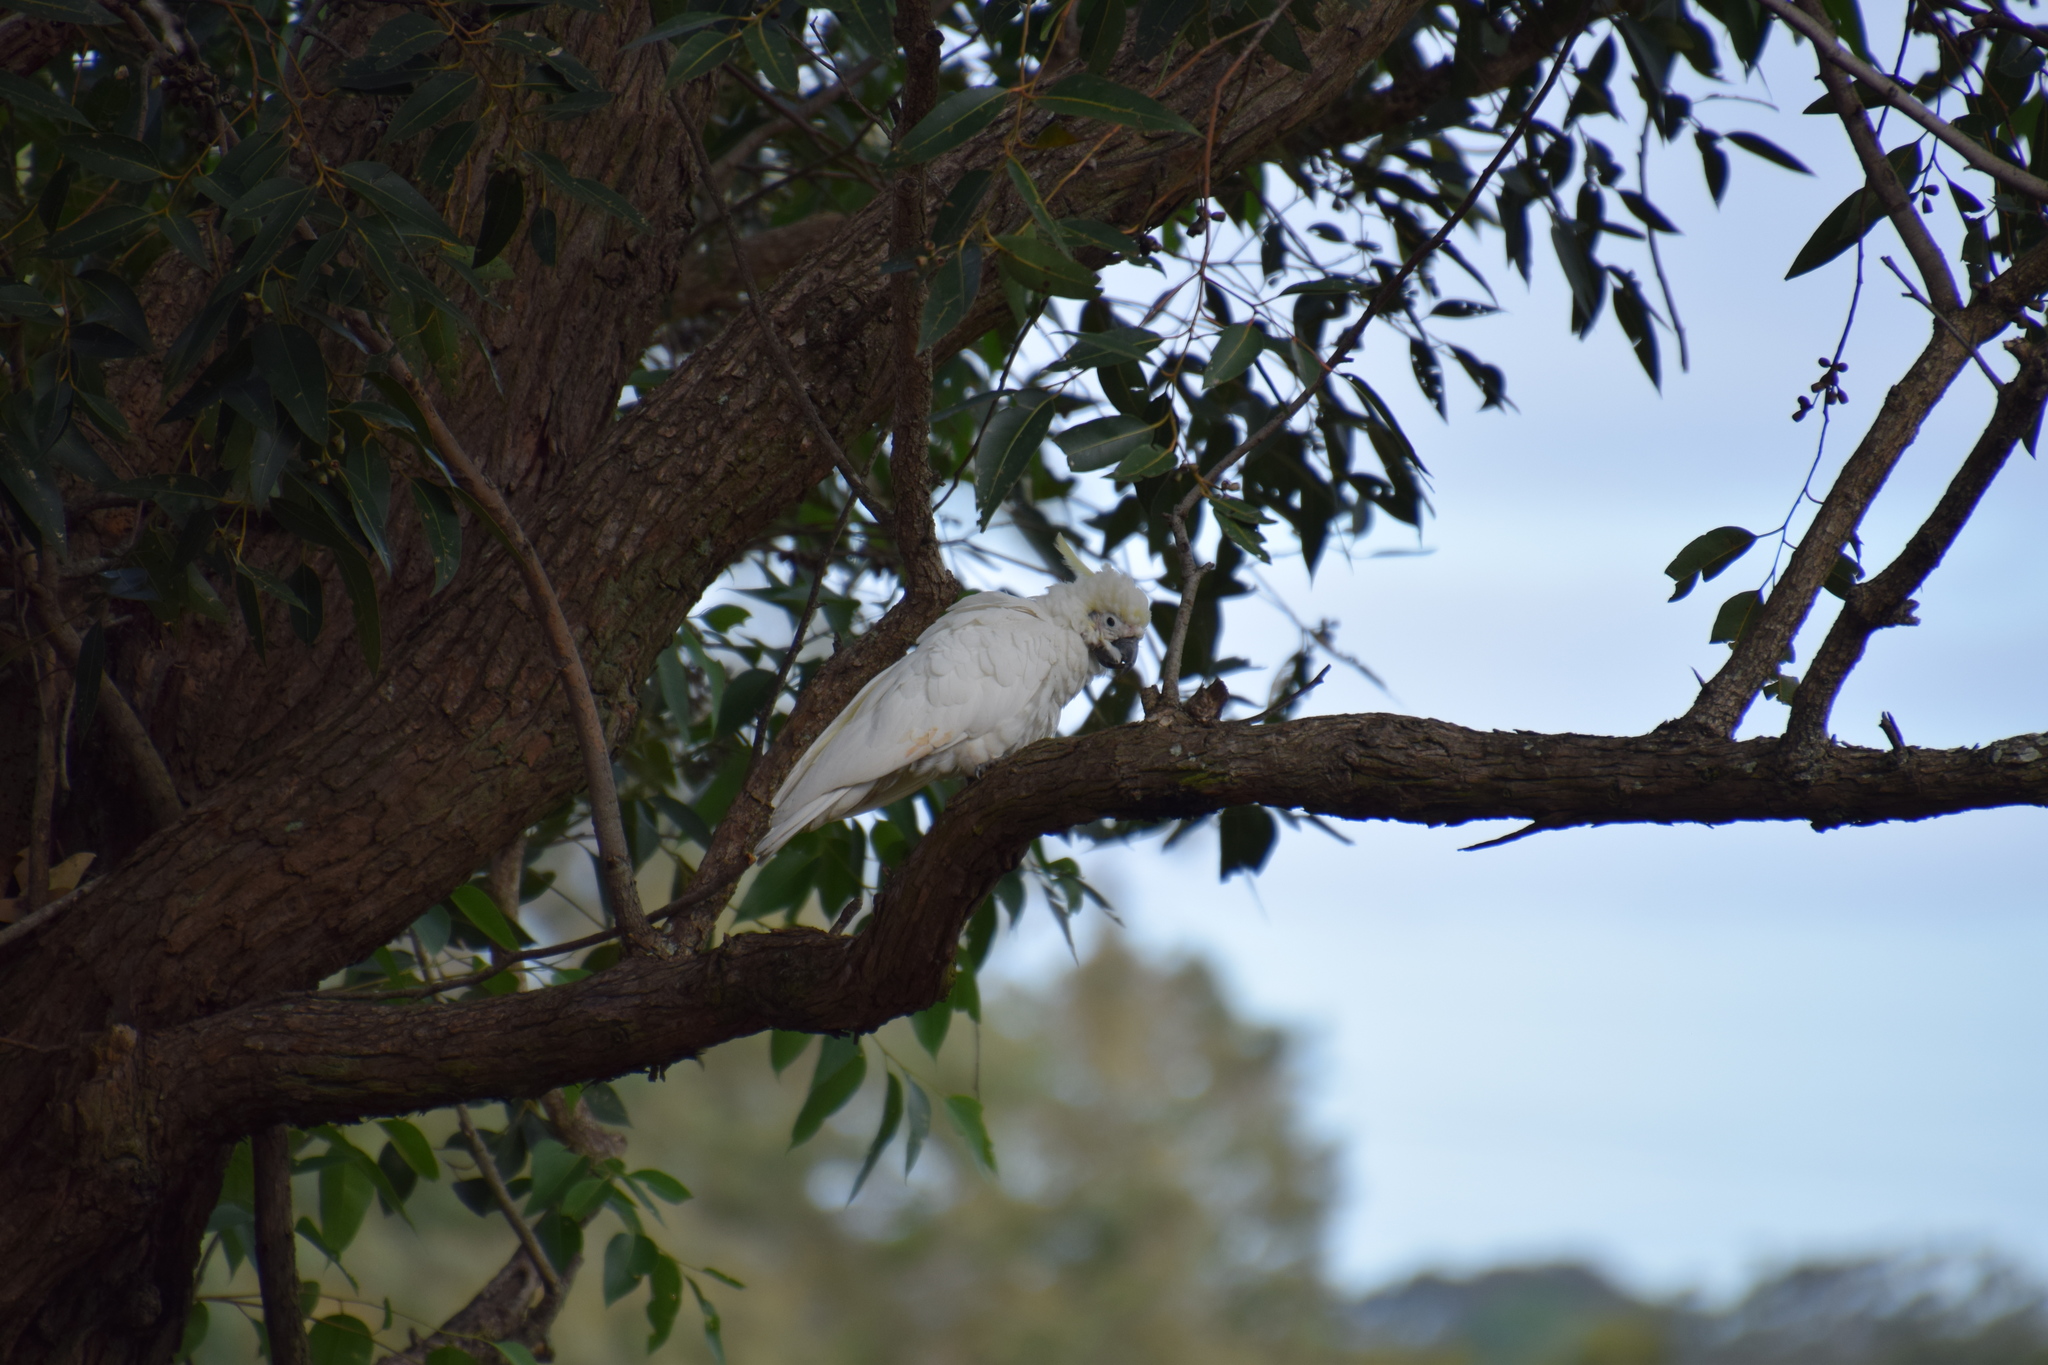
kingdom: Animalia
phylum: Chordata
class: Aves
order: Psittaciformes
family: Psittacidae
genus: Cacatua
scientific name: Cacatua galerita
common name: Sulphur-crested cockatoo
